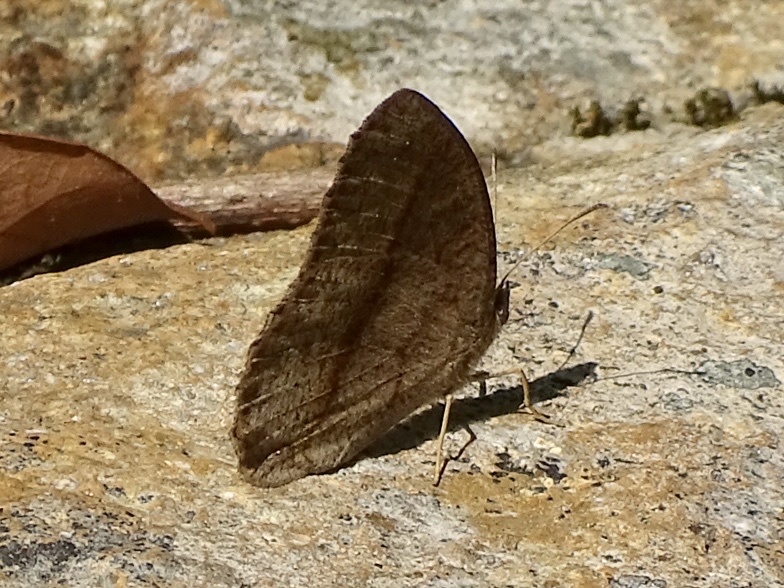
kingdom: Animalia
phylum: Arthropoda
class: Insecta
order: Lepidoptera
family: Nymphalidae
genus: Mycalesis
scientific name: Mycalesis mineus
